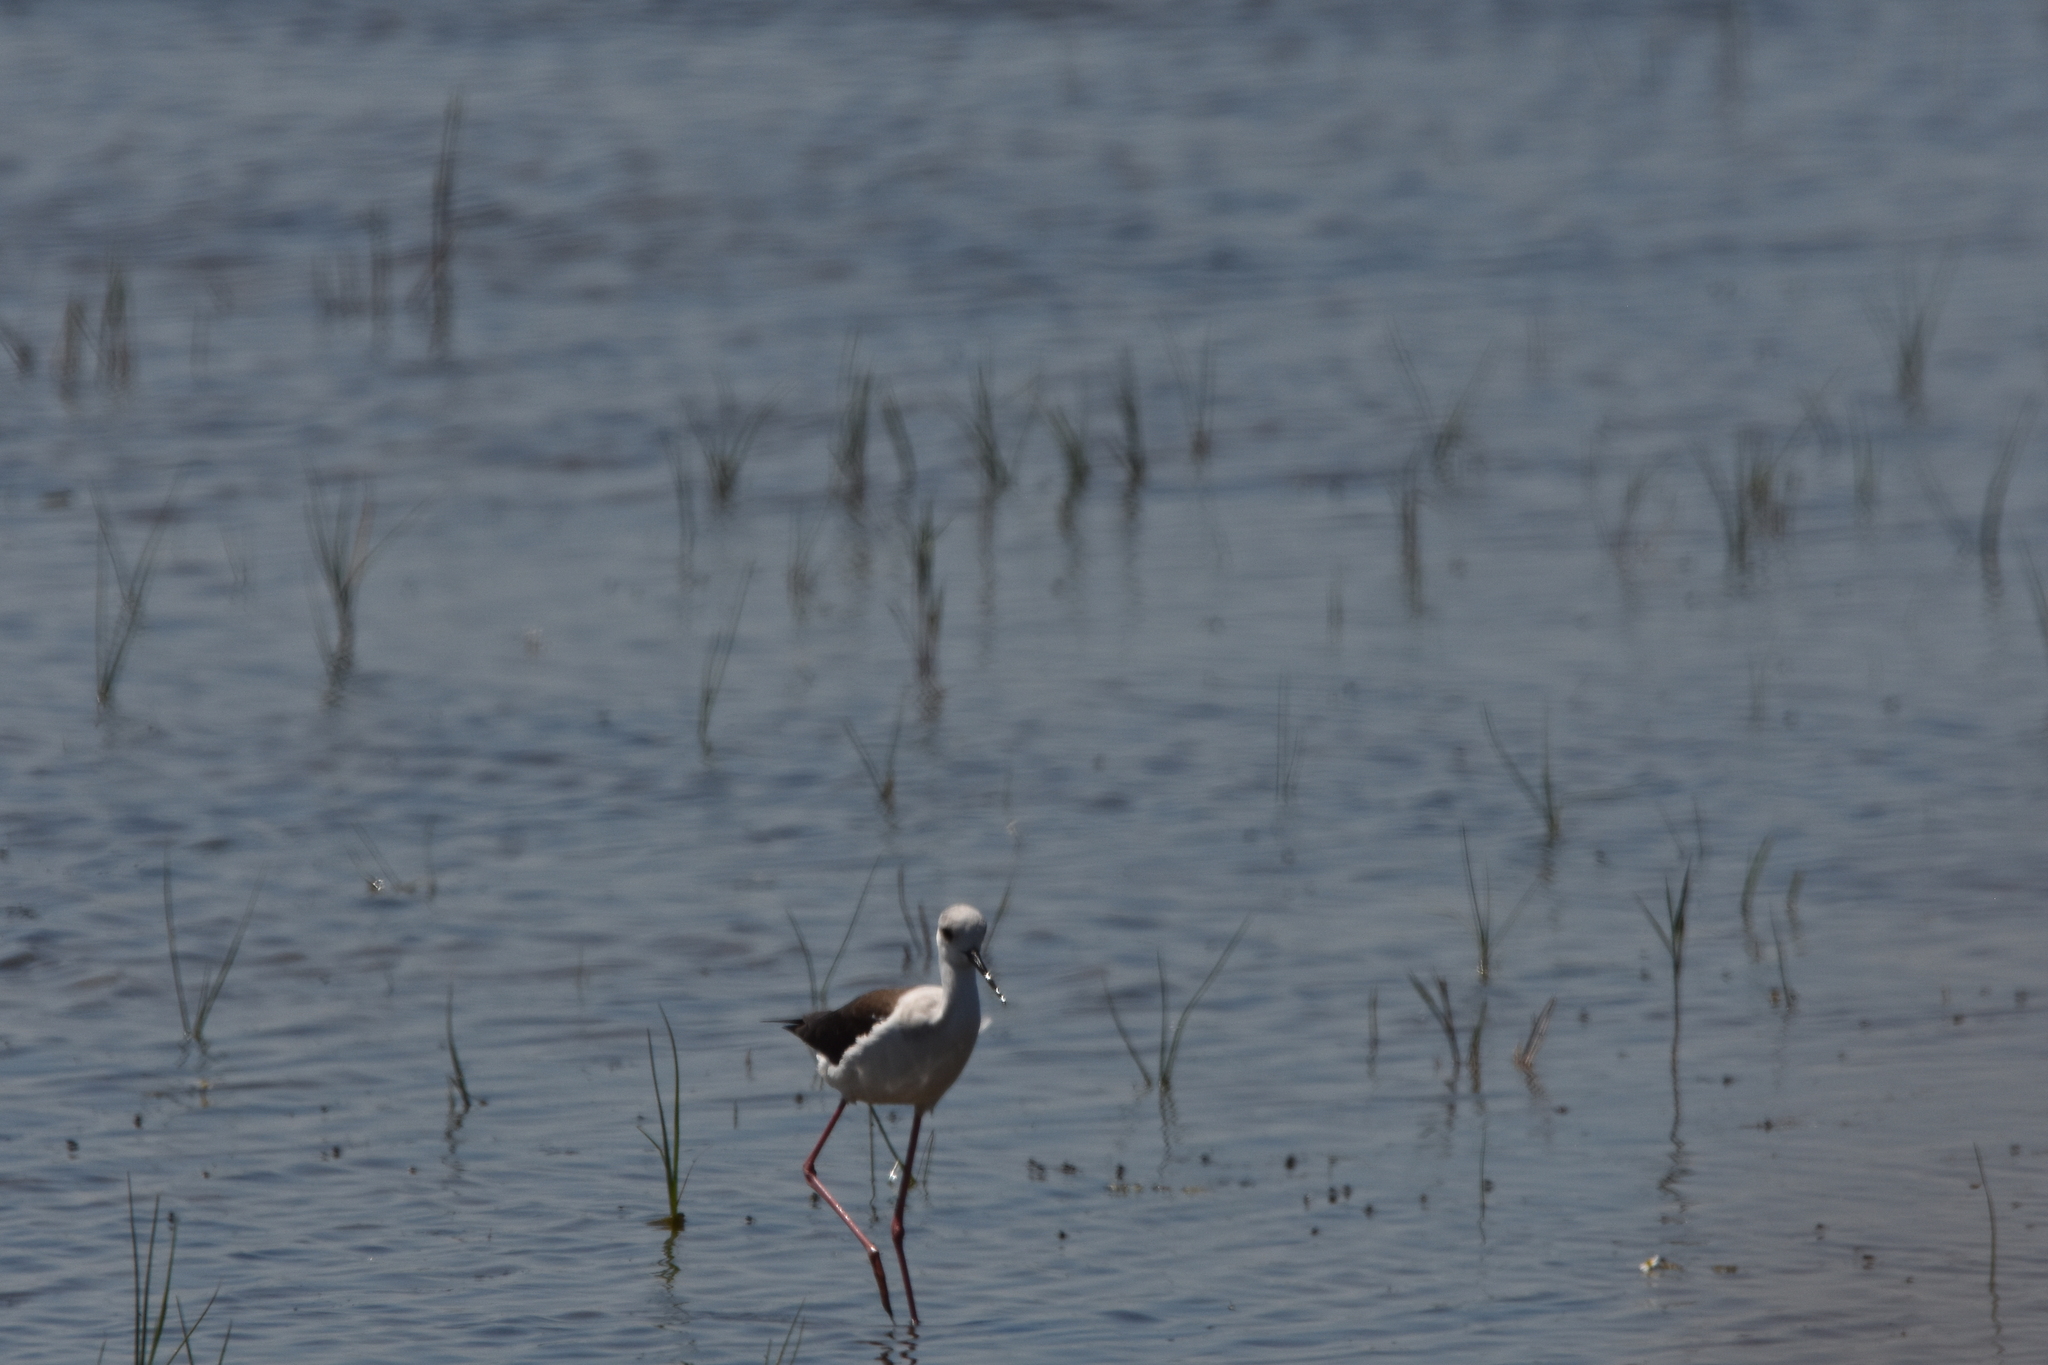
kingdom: Animalia
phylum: Chordata
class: Aves
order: Charadriiformes
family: Recurvirostridae
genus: Himantopus
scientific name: Himantopus himantopus
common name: Black-winged stilt
